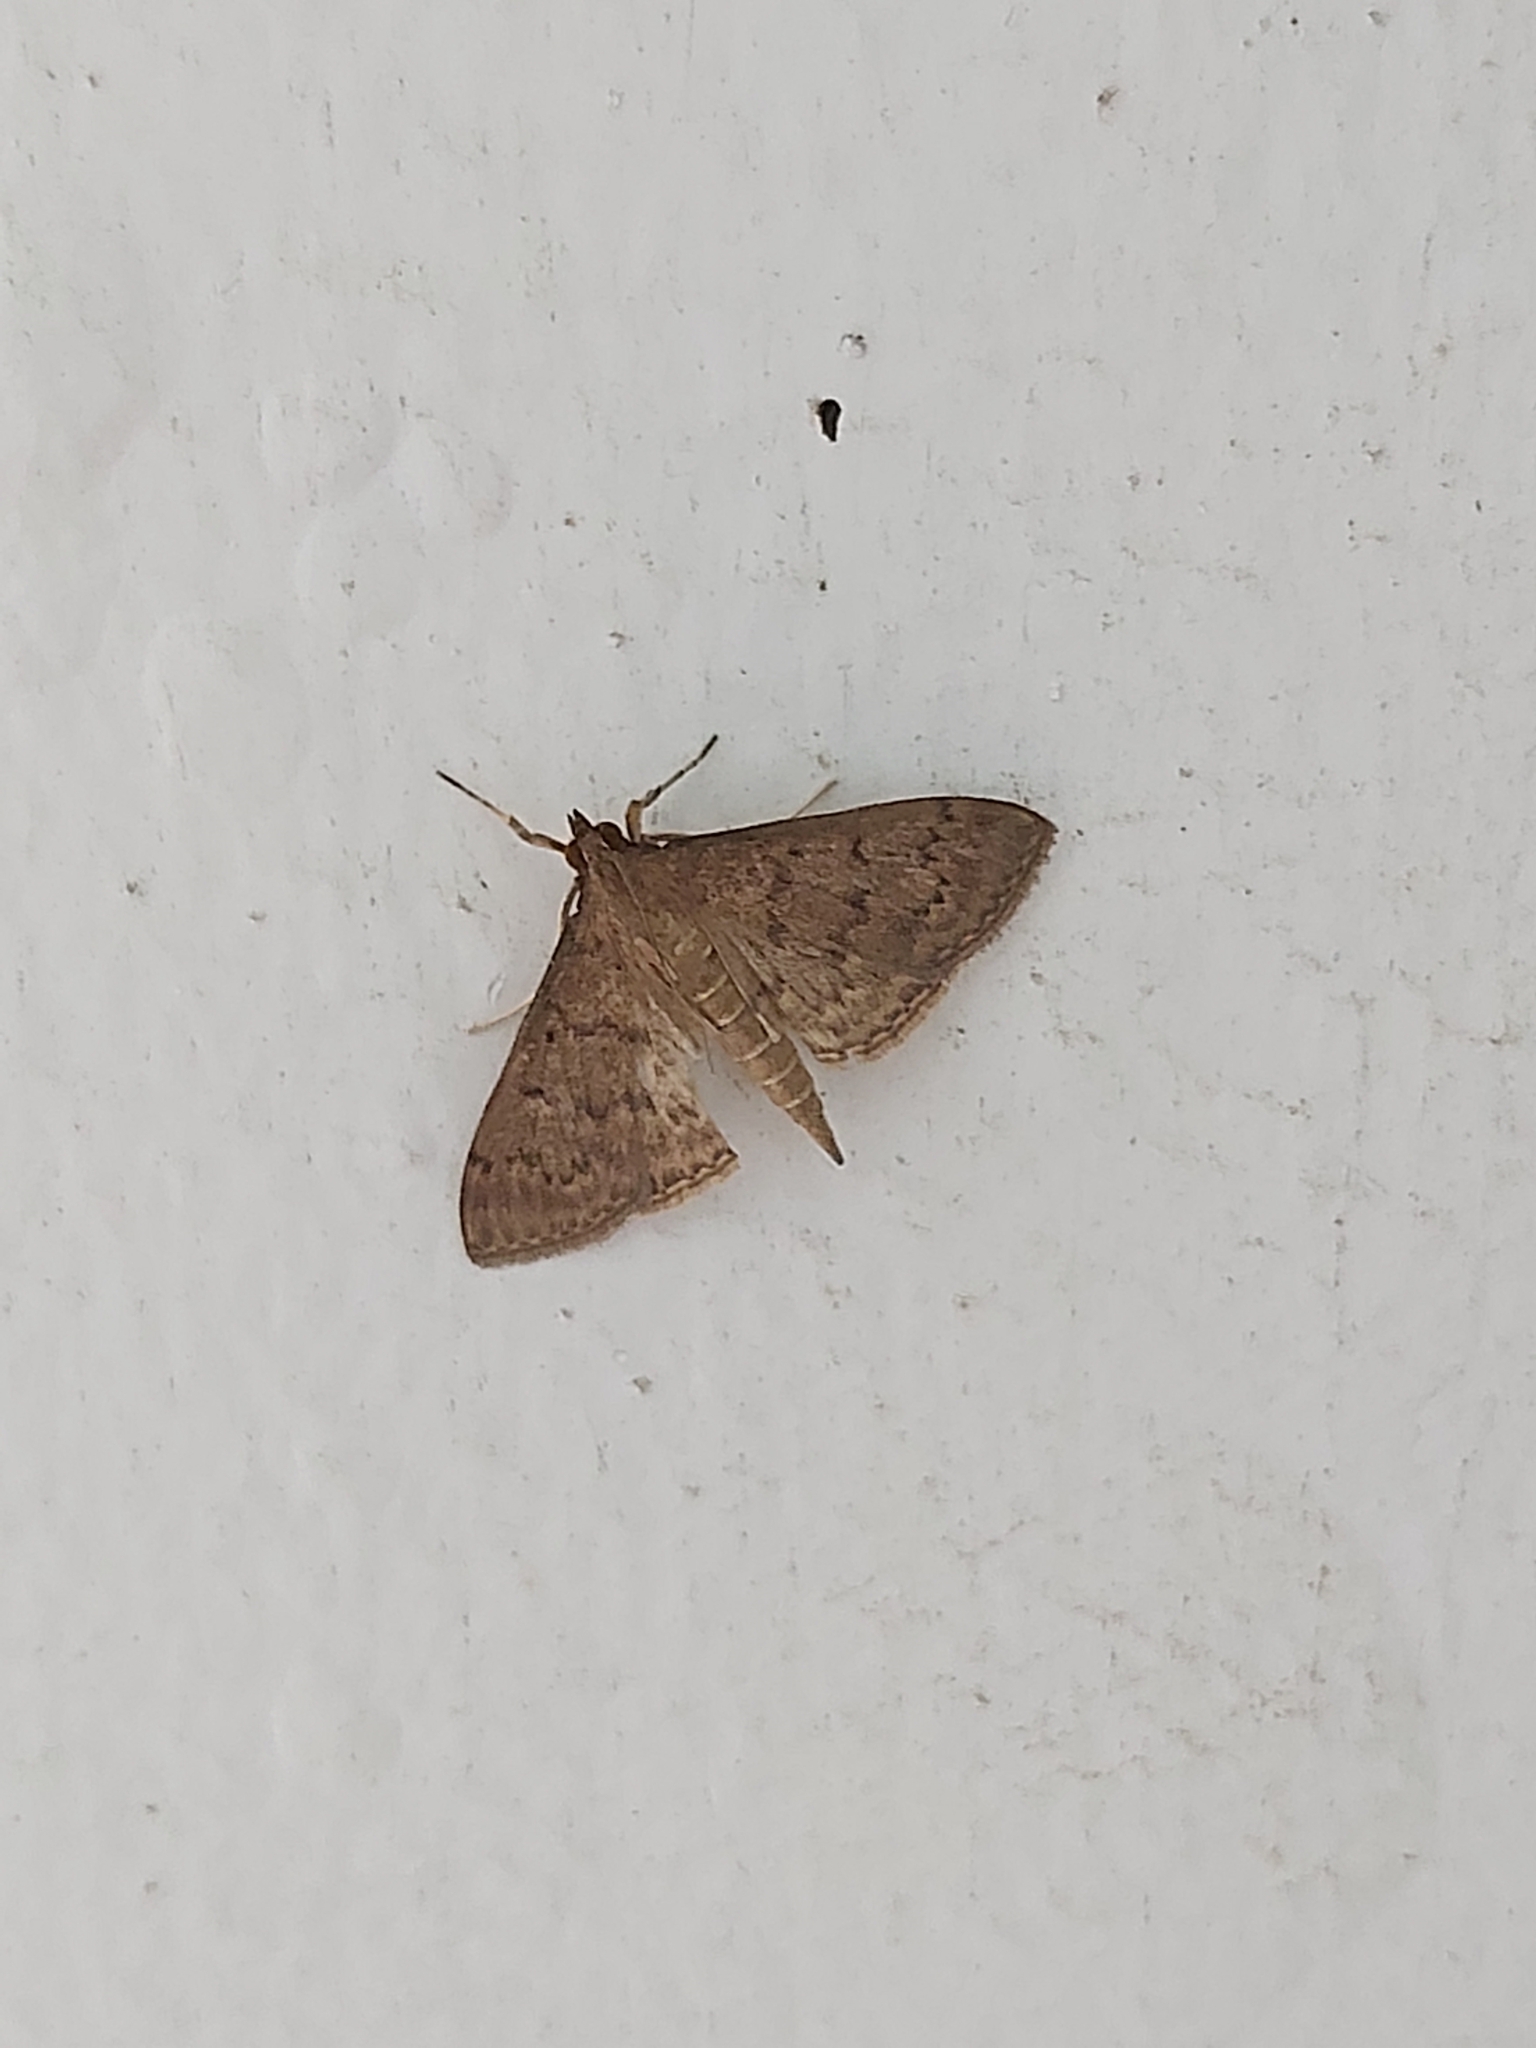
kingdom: Animalia
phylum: Arthropoda
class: Insecta
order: Lepidoptera
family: Crambidae
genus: Herpetogramma
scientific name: Herpetogramma licarsisalis
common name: Grass webworm
